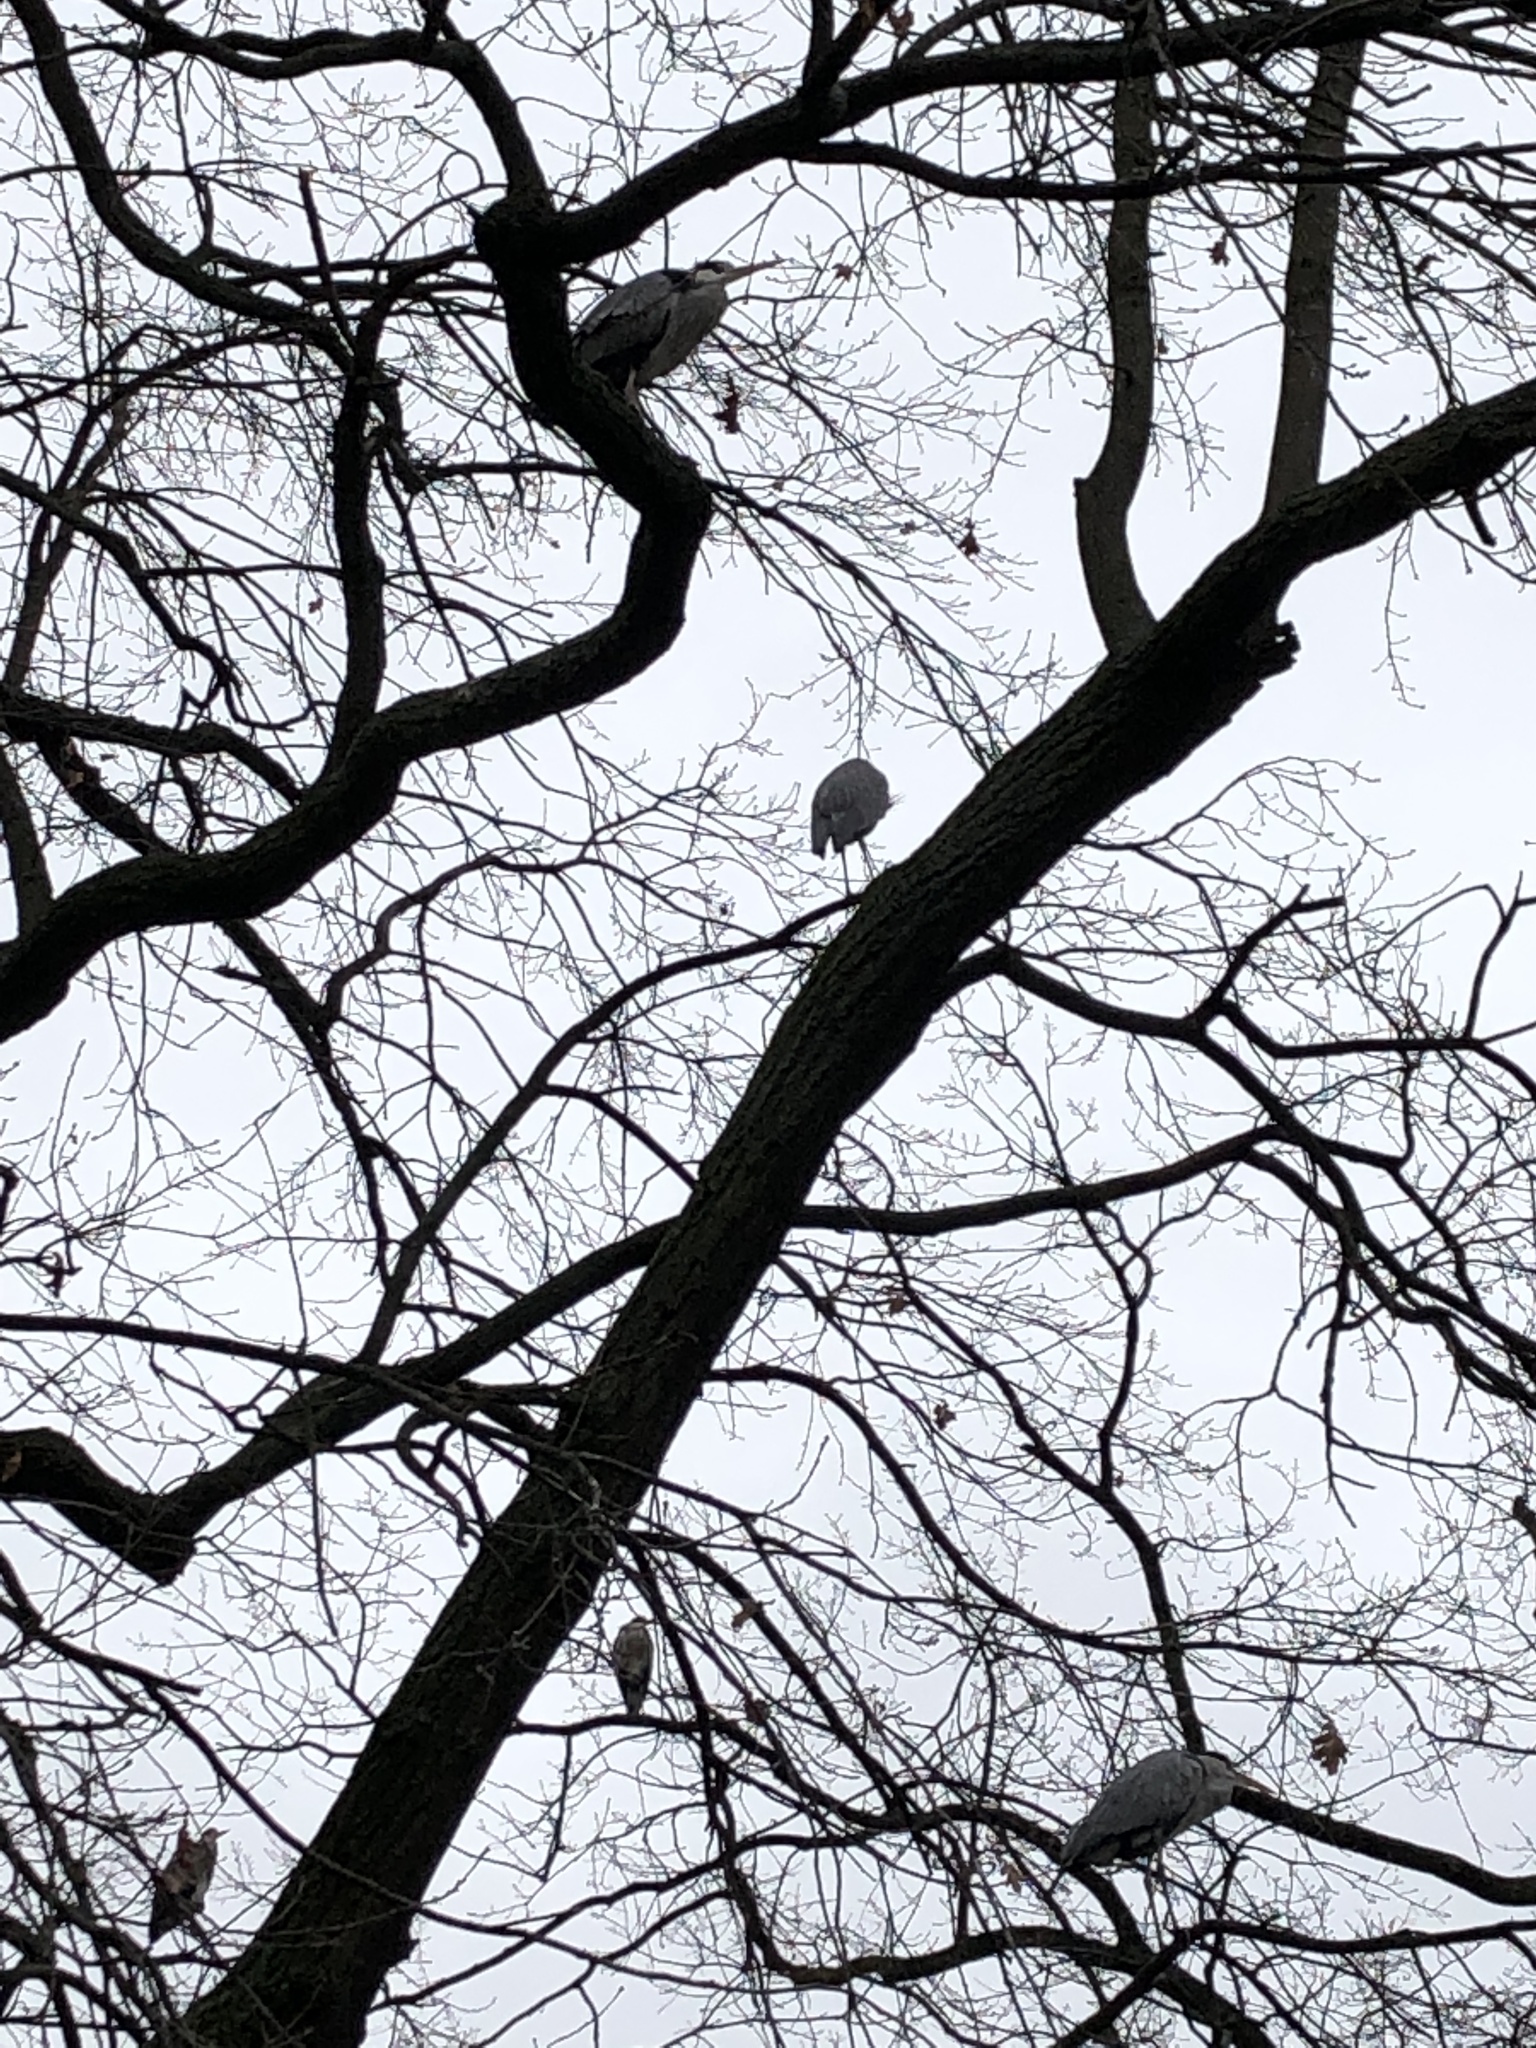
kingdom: Animalia
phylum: Chordata
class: Aves
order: Pelecaniformes
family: Ardeidae
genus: Ardea
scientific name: Ardea cinerea
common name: Grey heron
